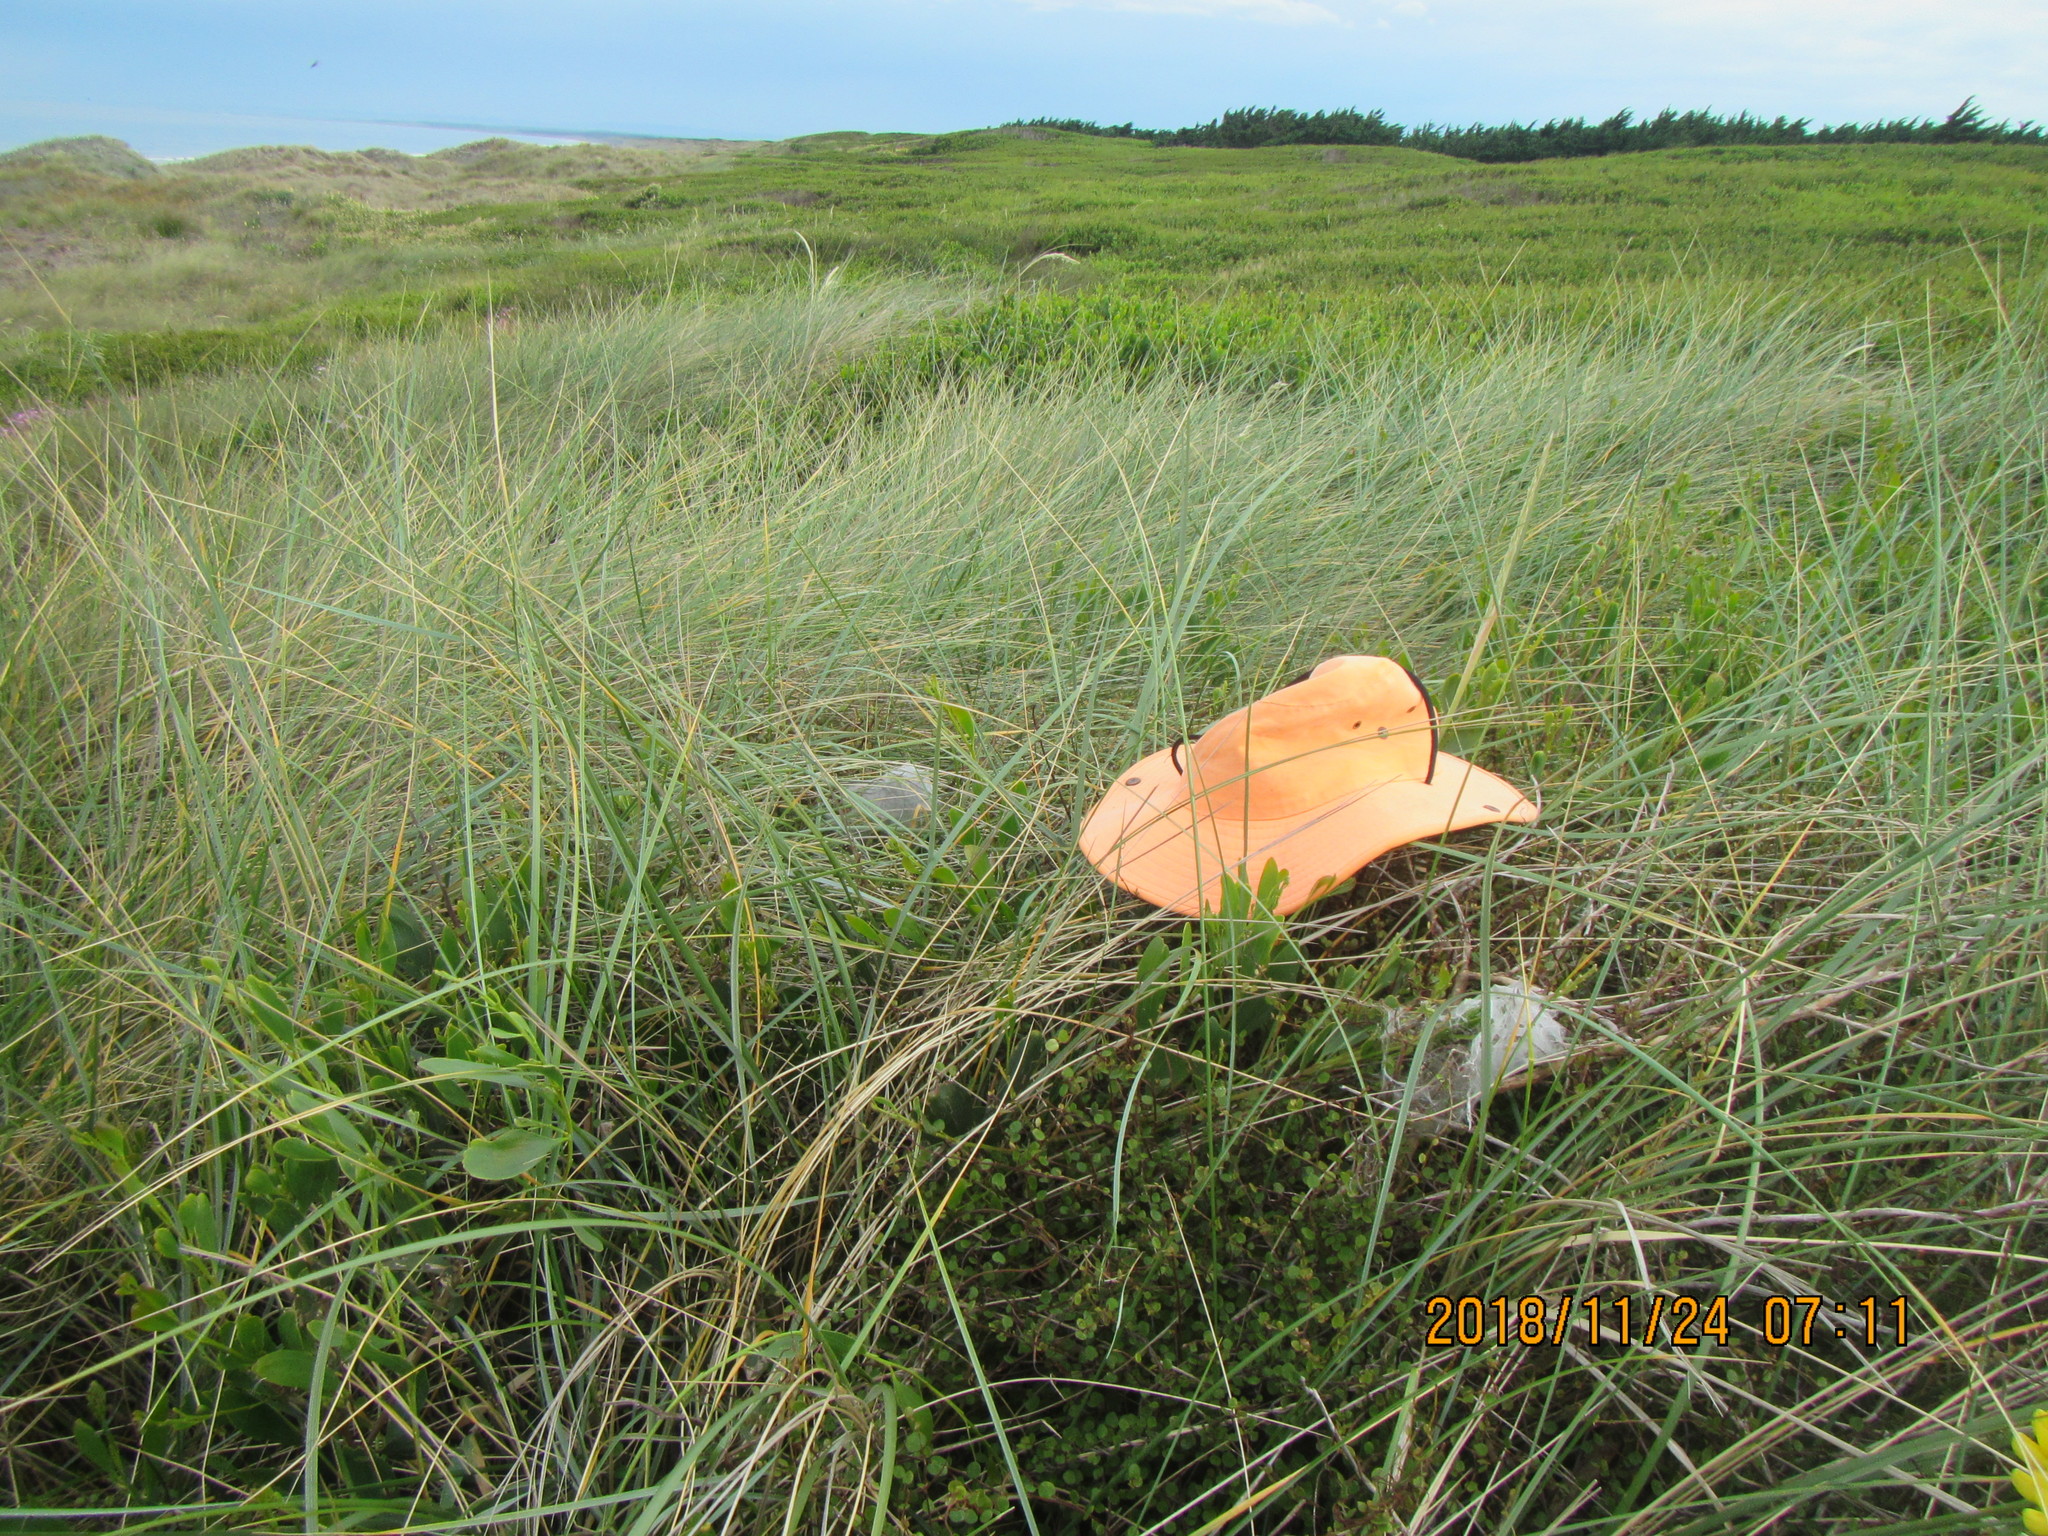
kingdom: Plantae
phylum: Tracheophyta
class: Magnoliopsida
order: Caryophyllales
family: Polygonaceae
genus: Muehlenbeckia
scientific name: Muehlenbeckia complexa
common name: Wireplant
